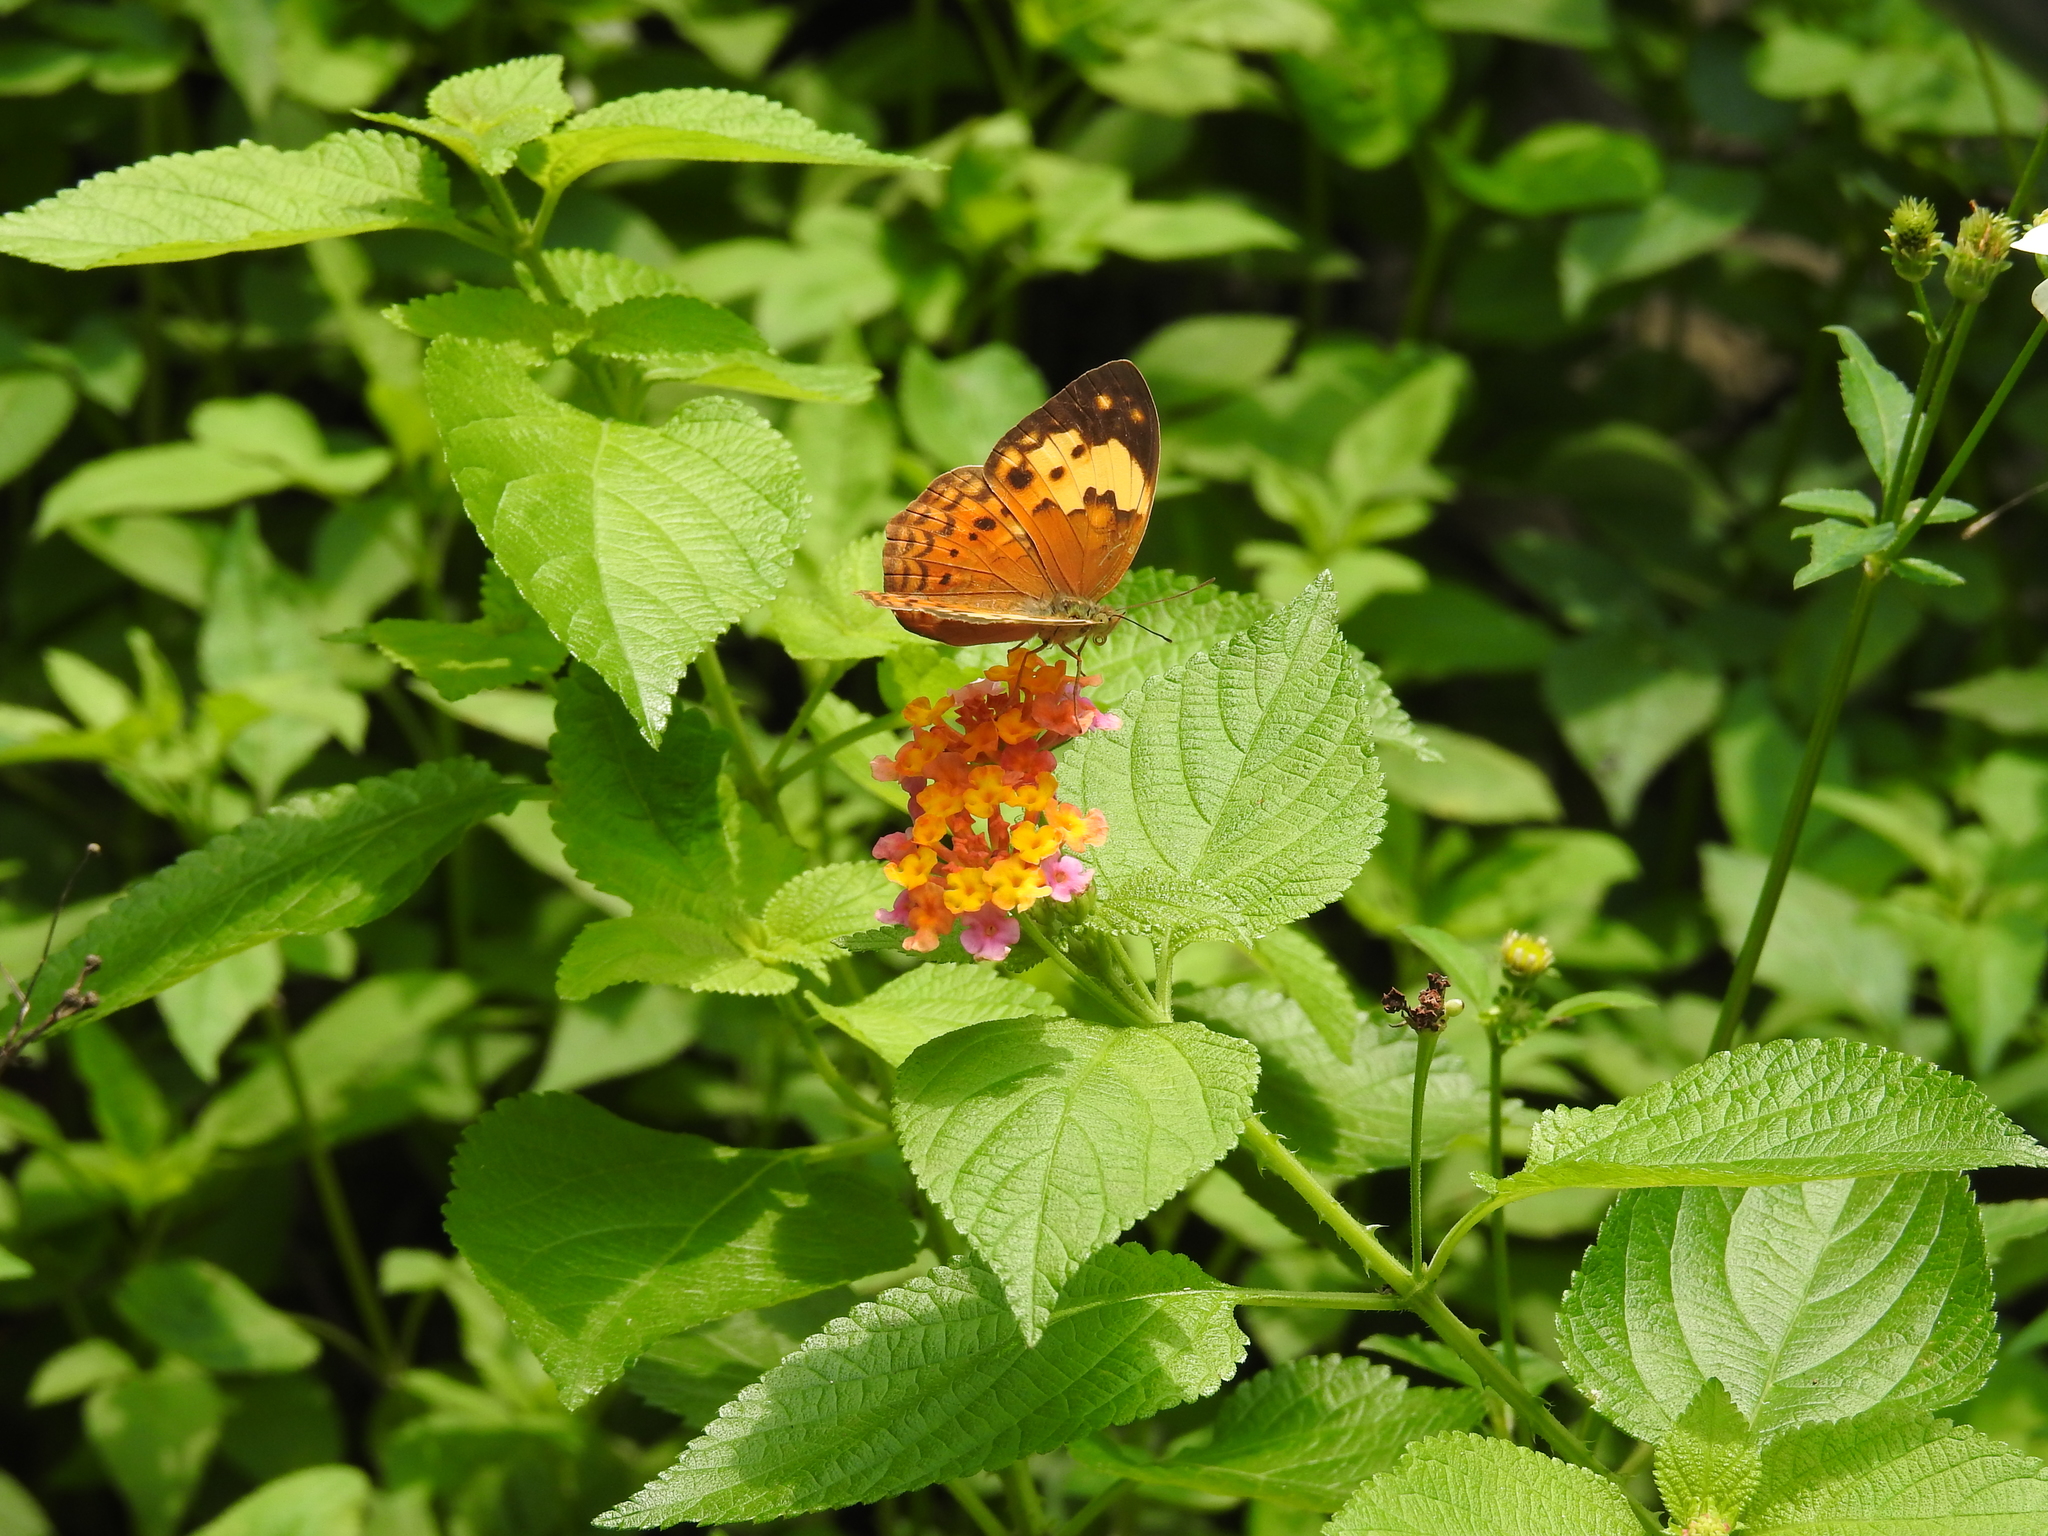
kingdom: Animalia
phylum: Arthropoda
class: Insecta
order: Lepidoptera
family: Nymphalidae
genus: Cupha
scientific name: Cupha erymanthis
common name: Rustic
